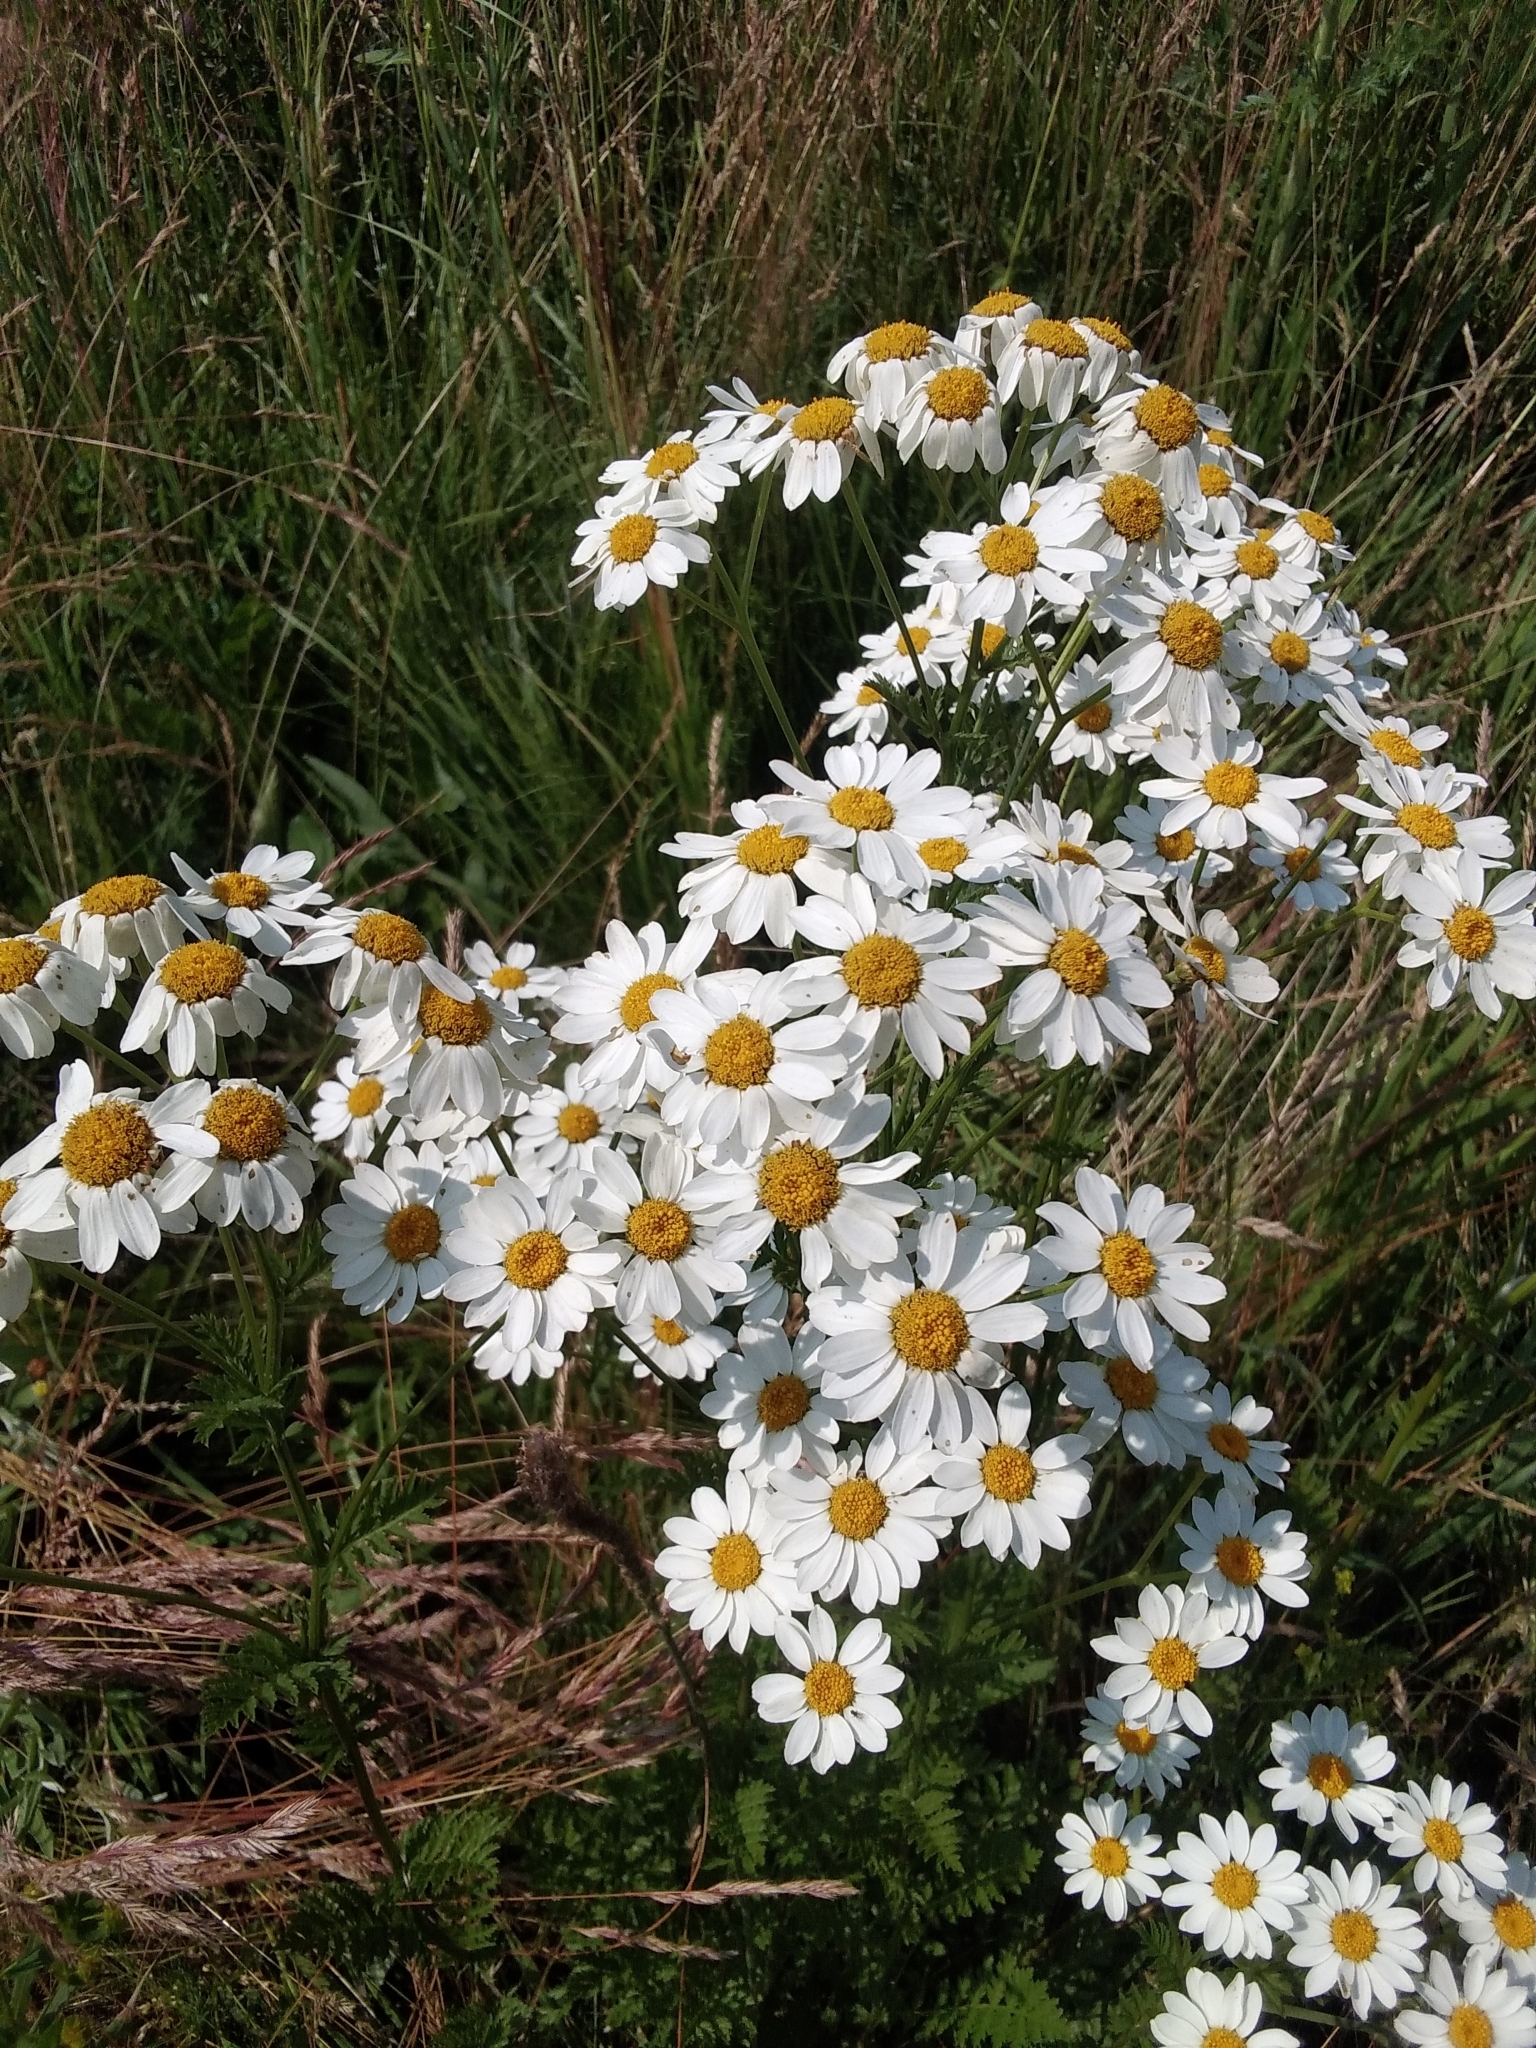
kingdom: Plantae
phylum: Tracheophyta
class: Magnoliopsida
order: Asterales
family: Asteraceae
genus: Tanacetum
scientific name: Tanacetum corymbosum
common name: Scentless feverfew
